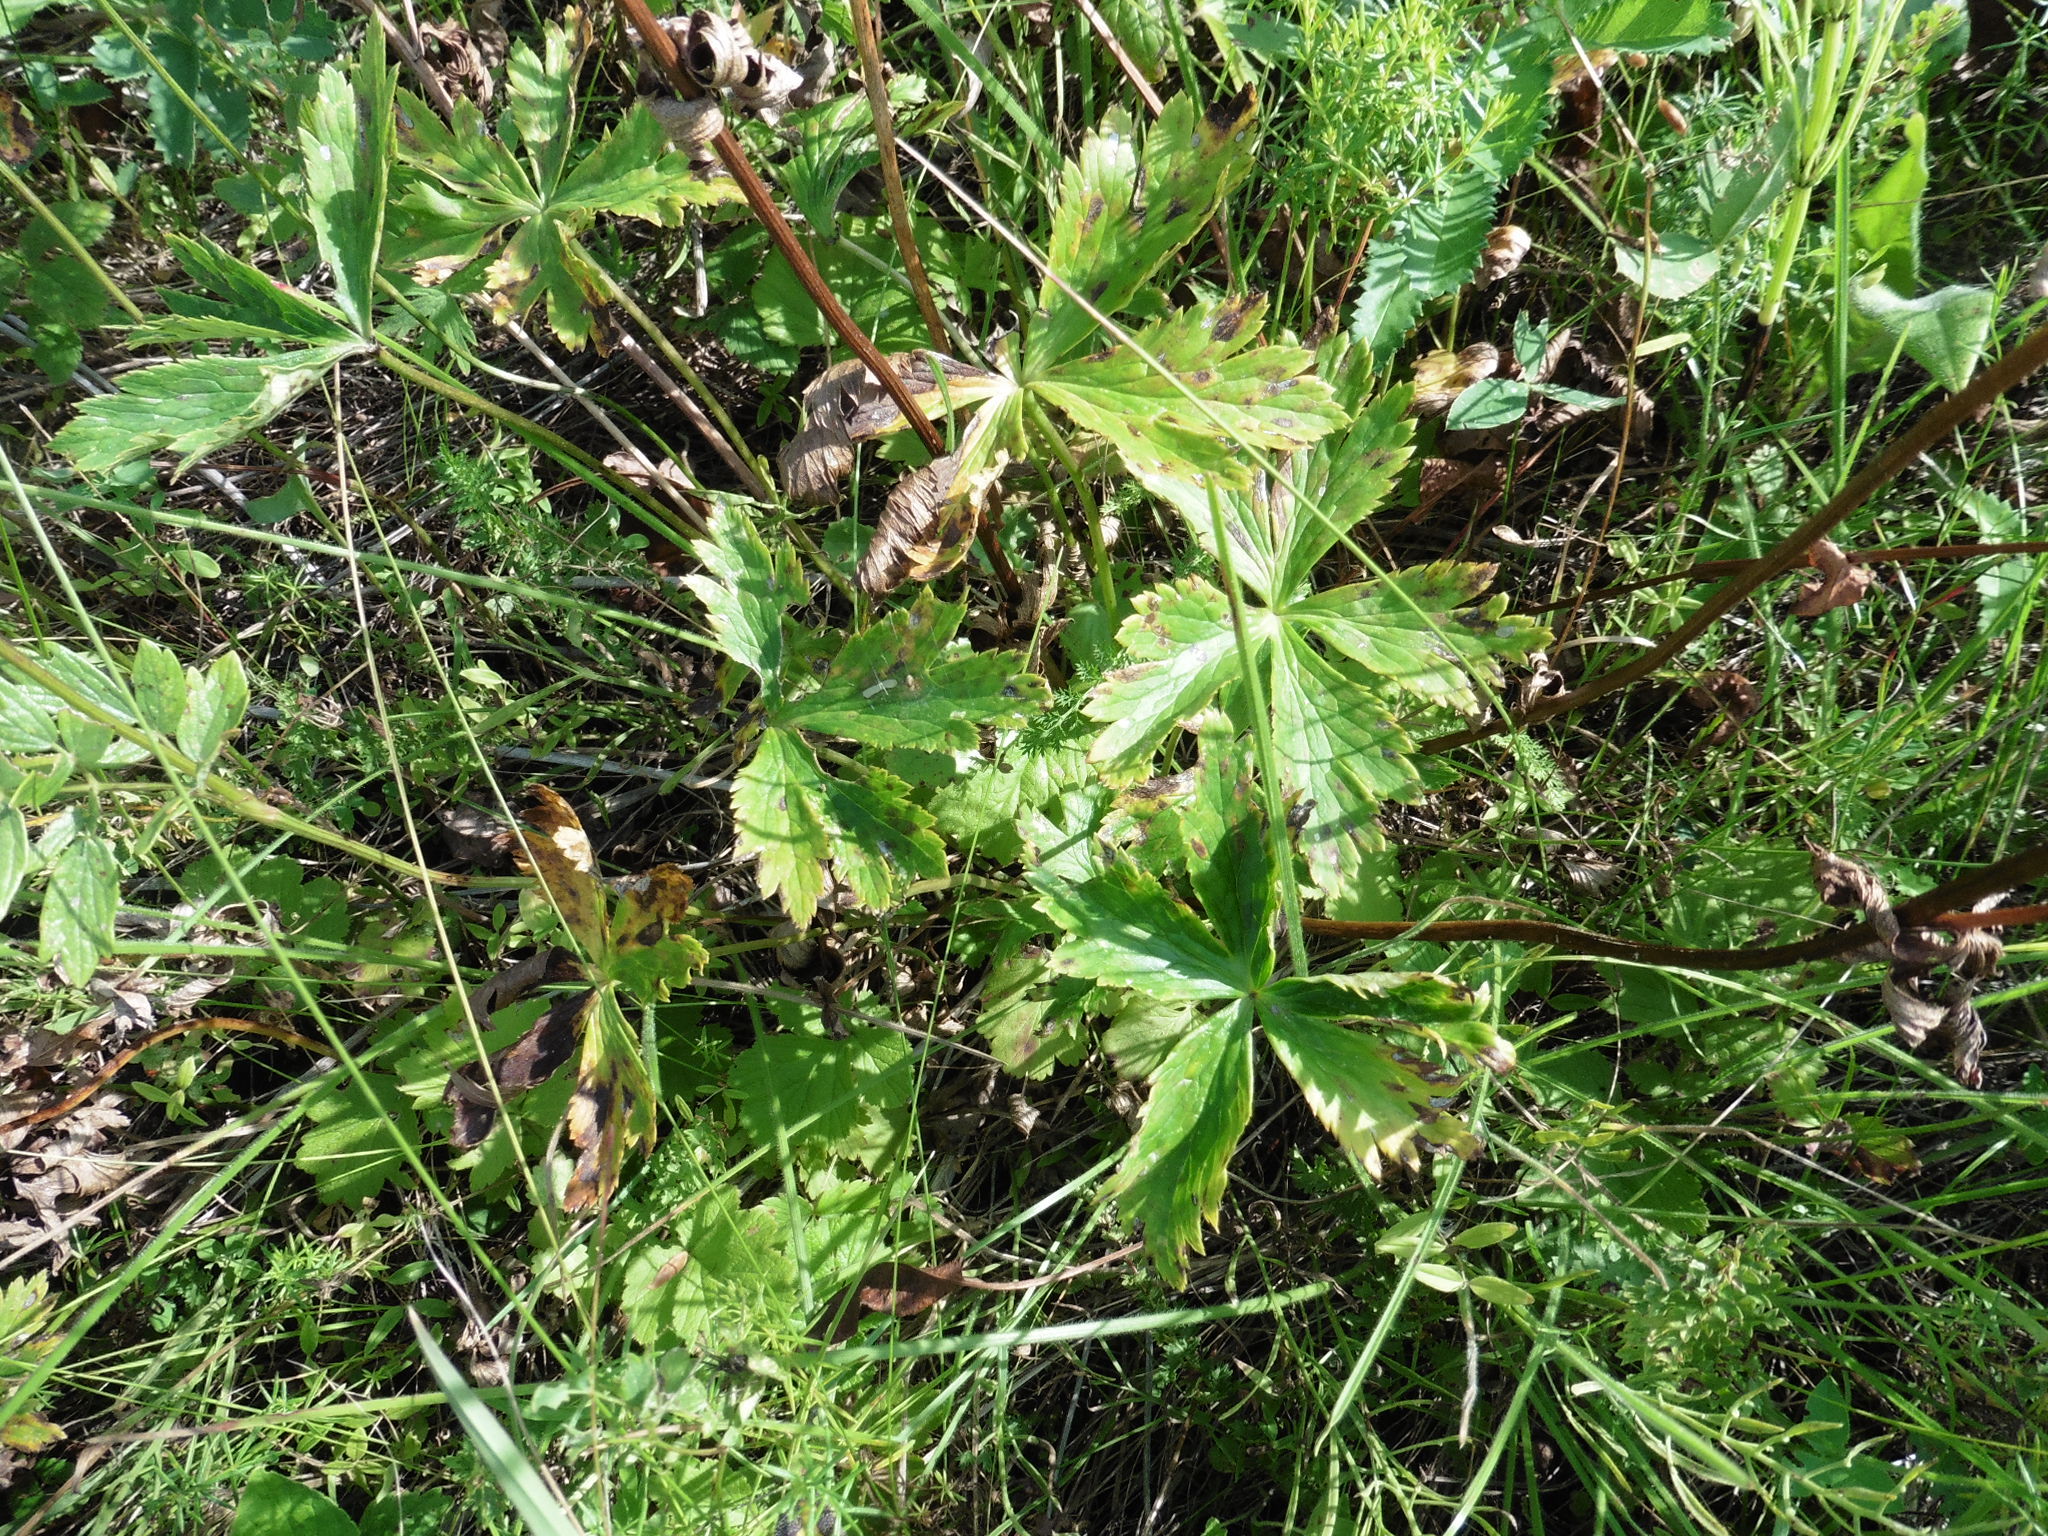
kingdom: Plantae
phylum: Tracheophyta
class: Magnoliopsida
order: Ranunculales
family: Ranunculaceae
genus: Trollius
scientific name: Trollius europaeus
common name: European globeflower
